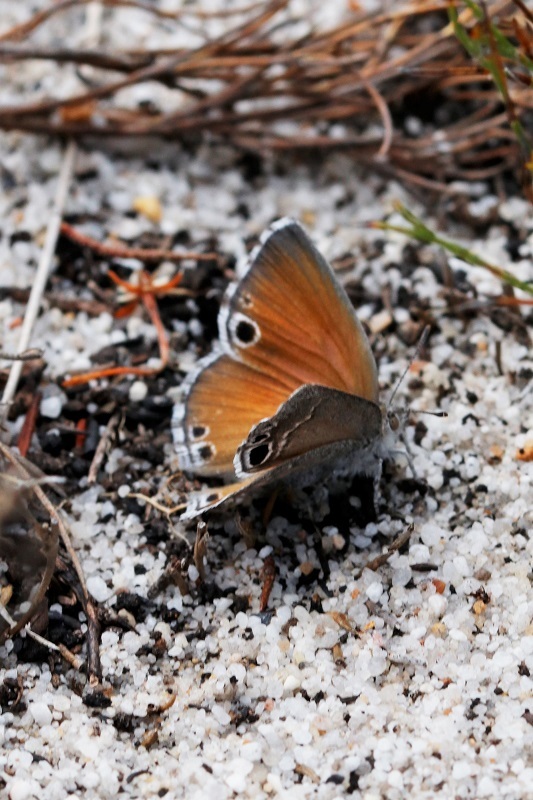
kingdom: Animalia
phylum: Arthropoda
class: Insecta
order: Lepidoptera
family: Lycaenidae
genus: Leptomyrina
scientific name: Leptomyrina lara
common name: Cape black-eye
